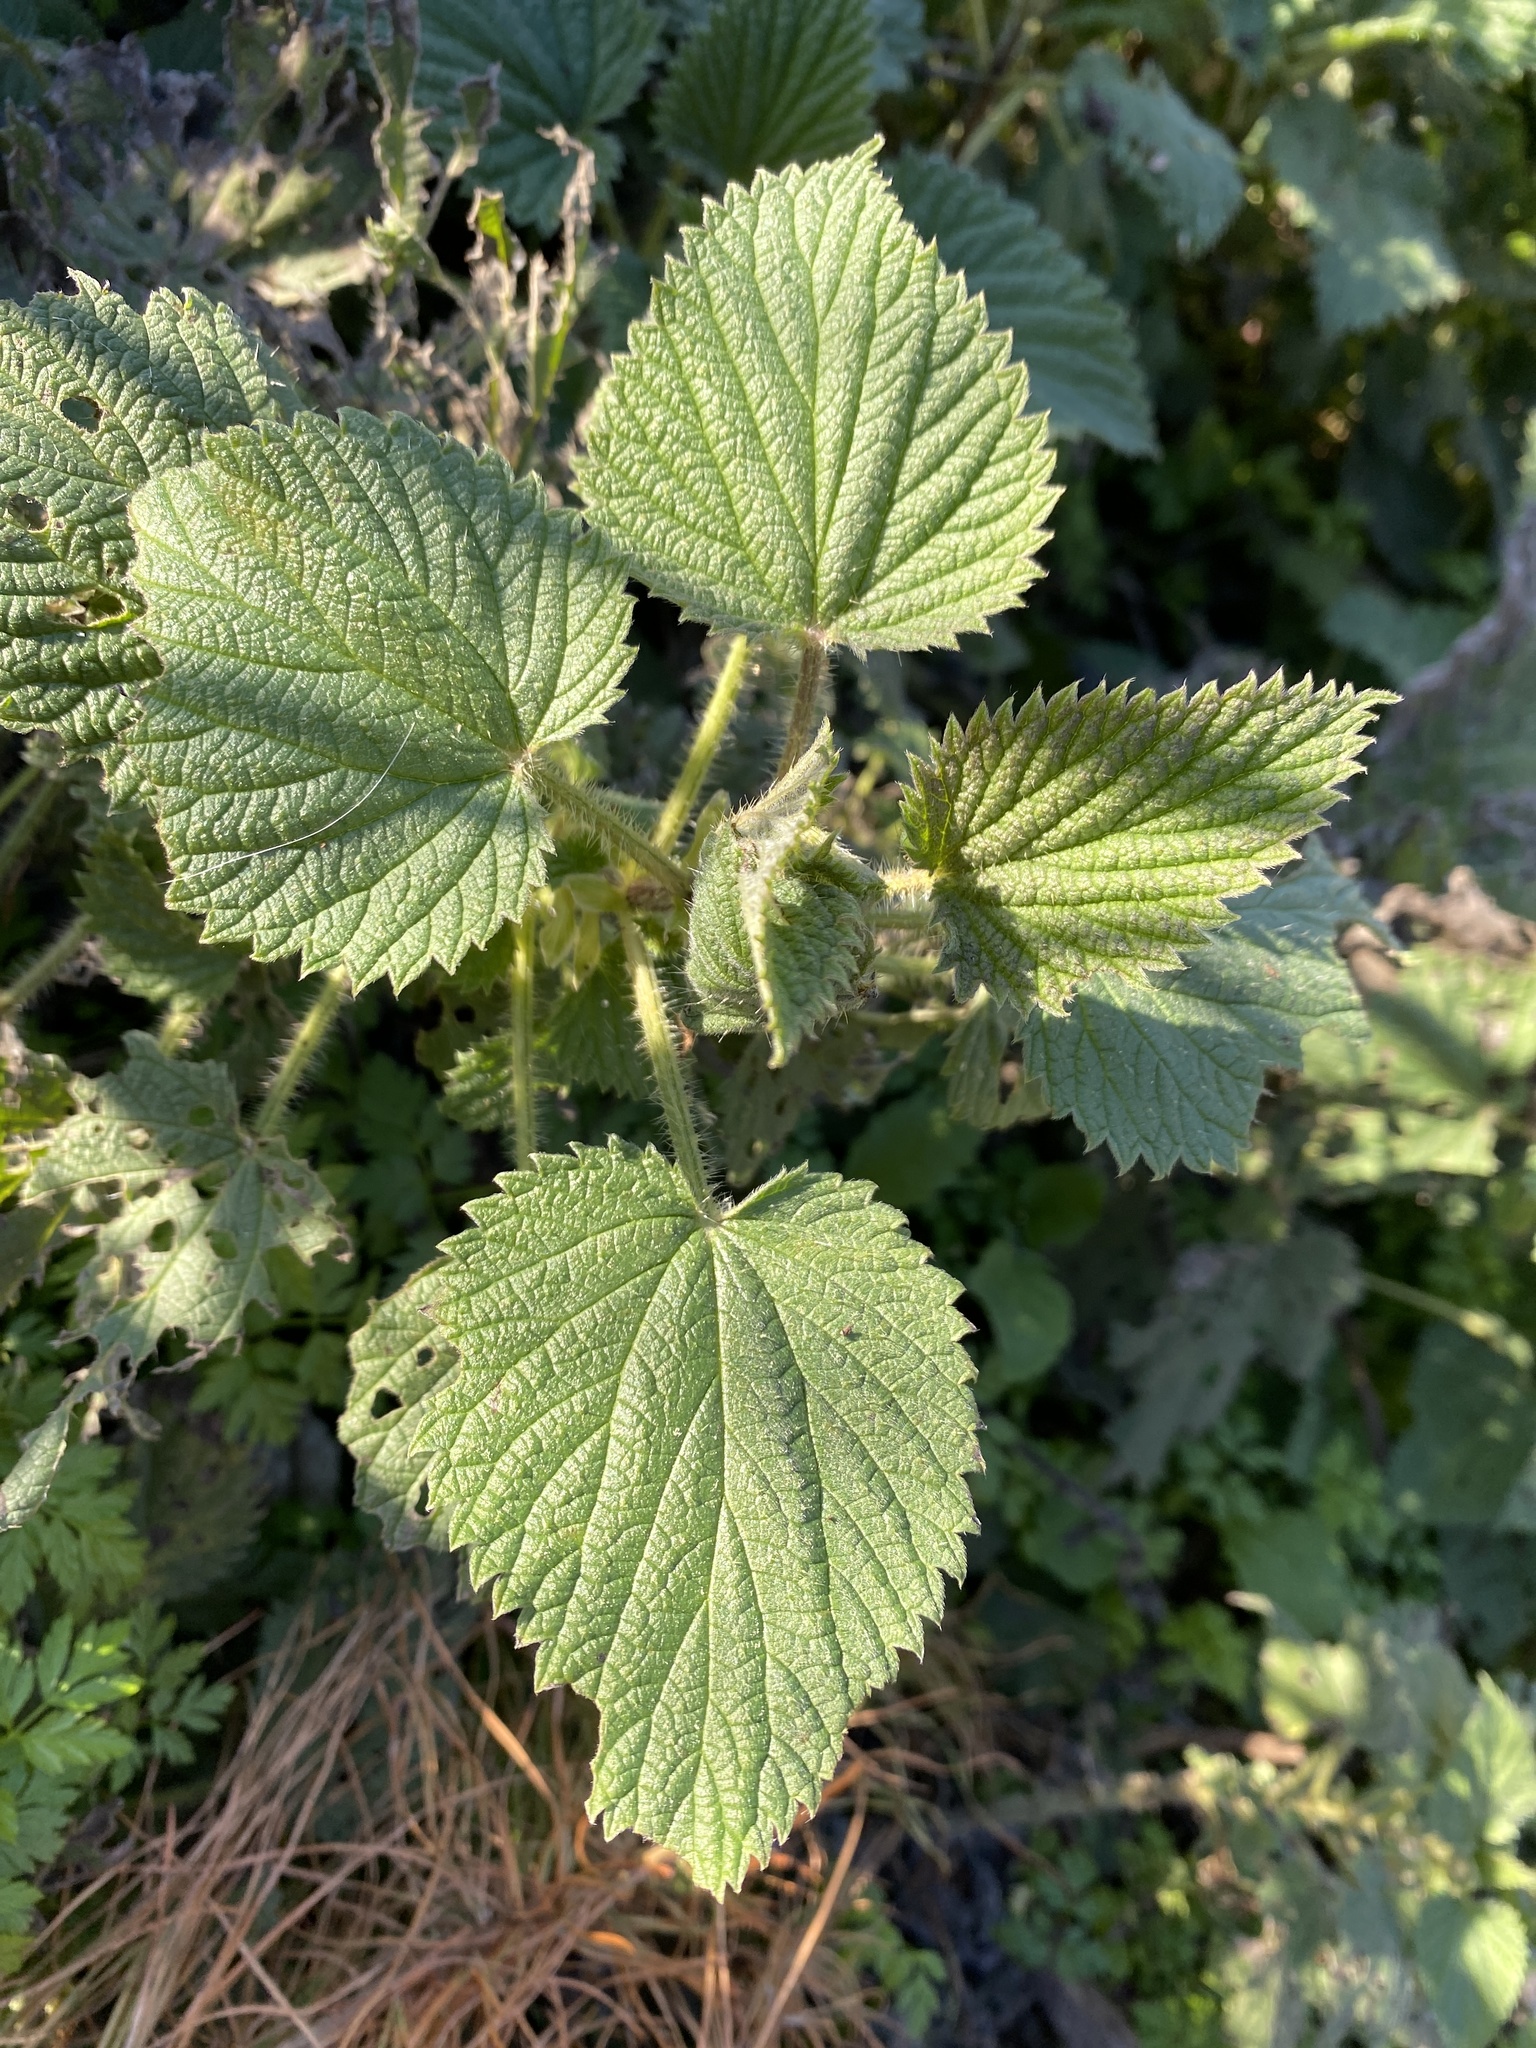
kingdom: Plantae
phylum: Tracheophyta
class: Magnoliopsida
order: Rosales
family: Urticaceae
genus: Urtica
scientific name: Urtica dioica
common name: Common nettle
